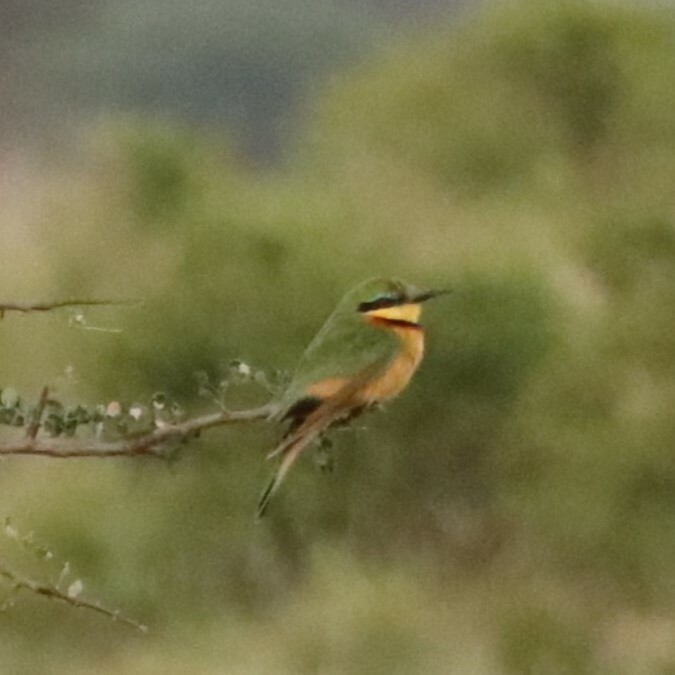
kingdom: Animalia
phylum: Chordata
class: Aves
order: Coraciiformes
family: Meropidae
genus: Merops
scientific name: Merops pusillus
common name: Little bee-eater
